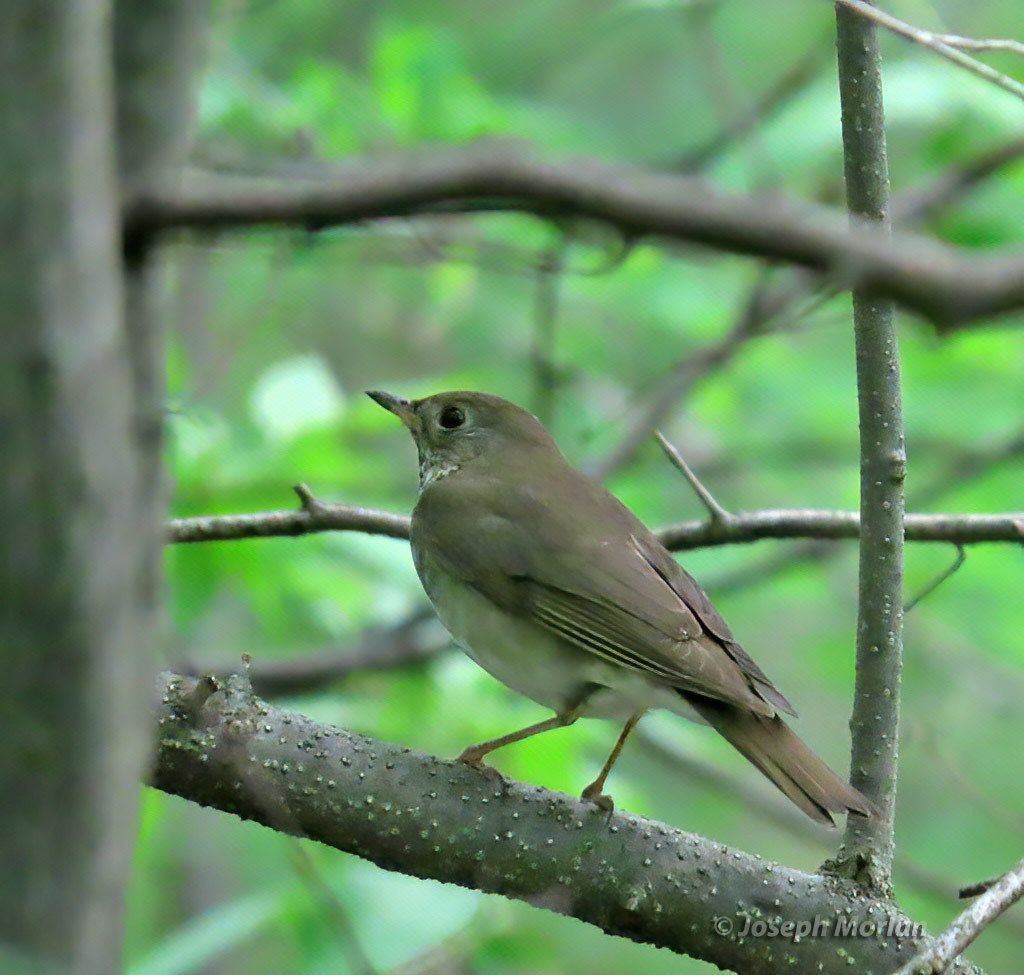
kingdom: Animalia
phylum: Chordata
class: Aves
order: Passeriformes
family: Turdidae
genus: Catharus
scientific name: Catharus minimus
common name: Grey-cheeked thrush
